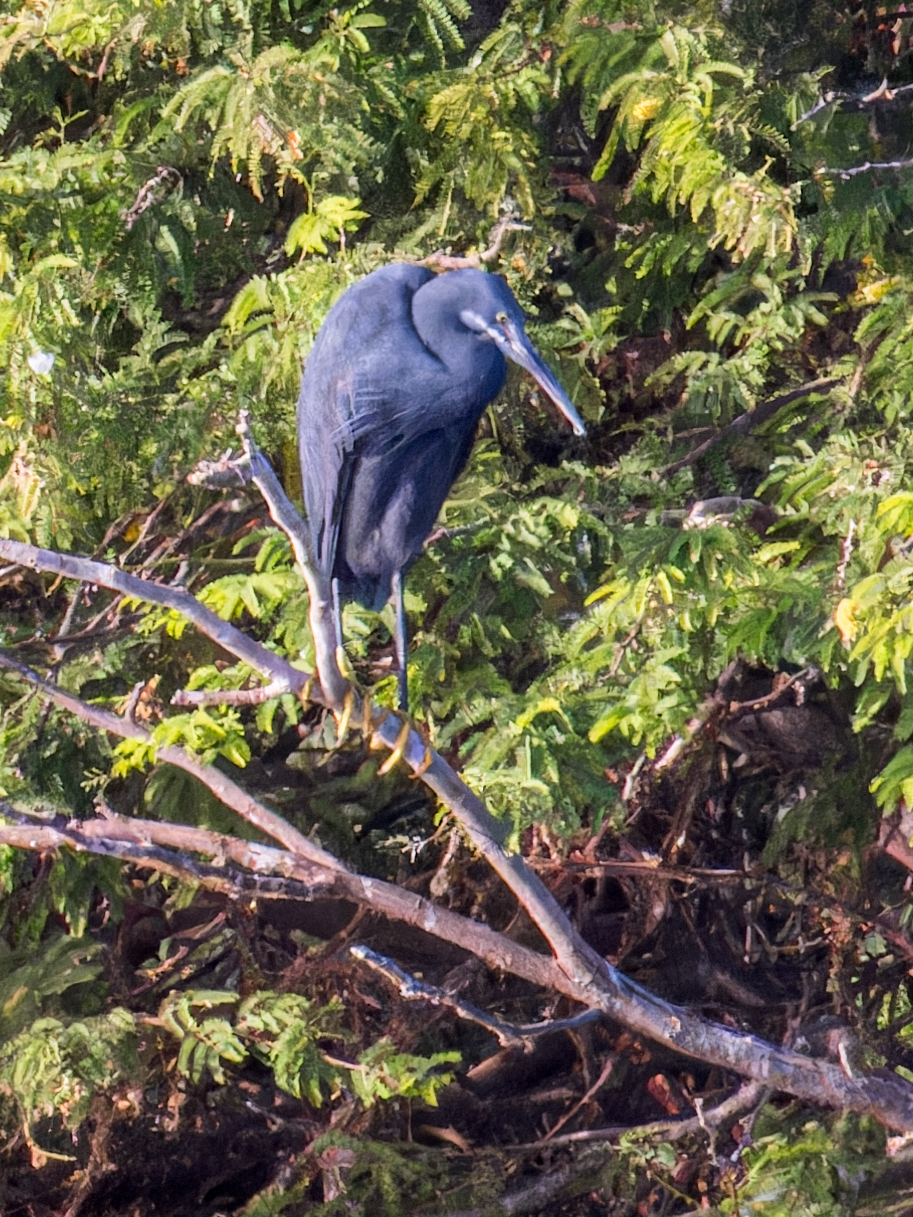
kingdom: Animalia
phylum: Chordata
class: Aves
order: Pelecaniformes
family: Ardeidae
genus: Egretta
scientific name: Egretta gularis
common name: Western reef-heron
